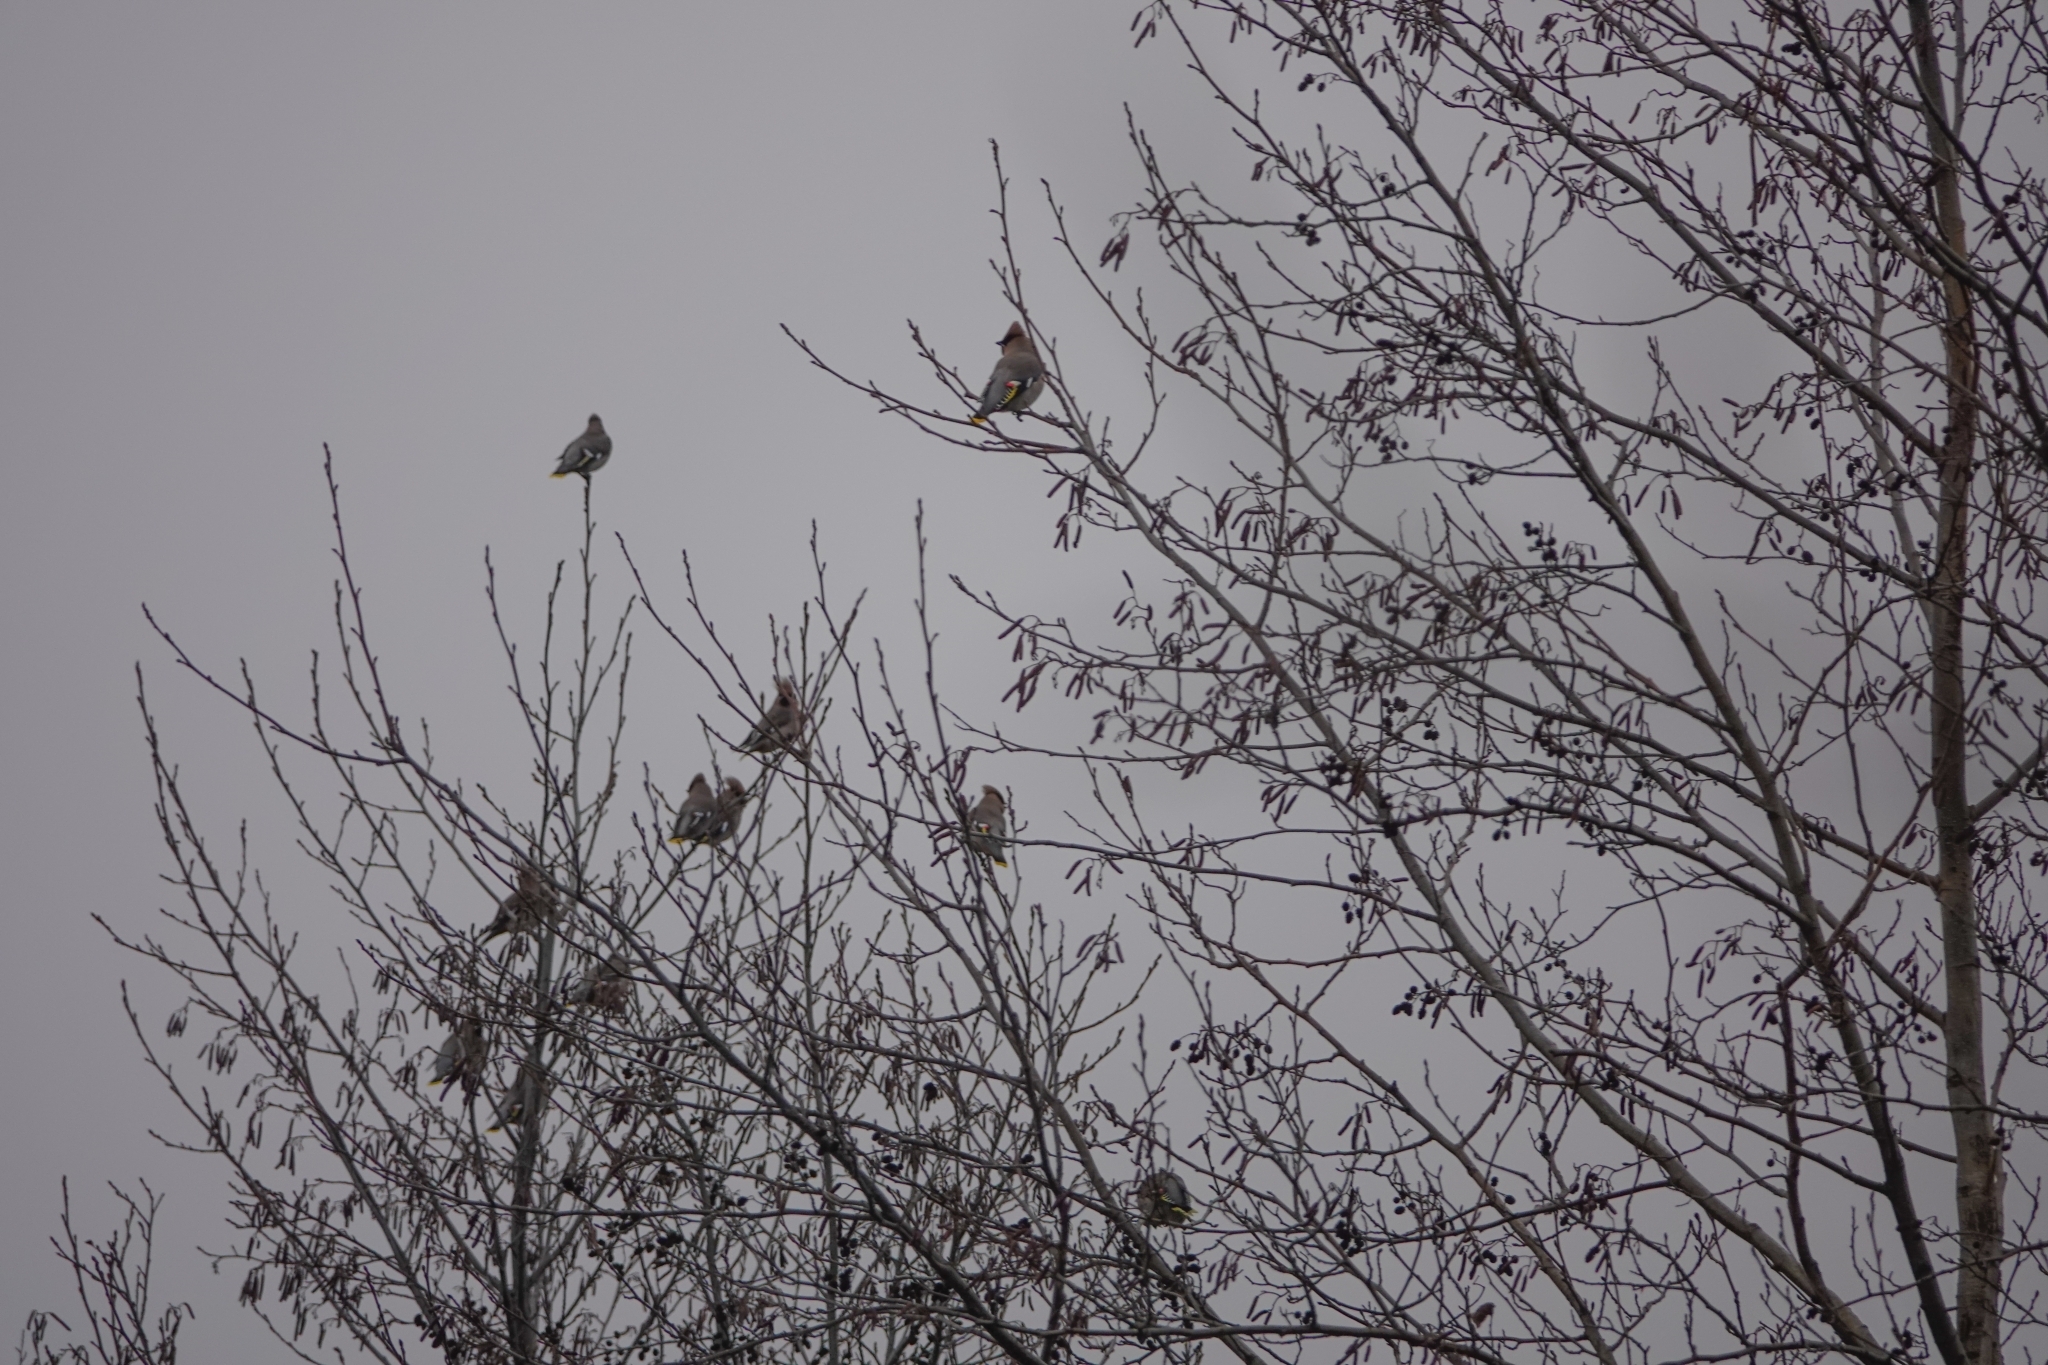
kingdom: Animalia
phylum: Chordata
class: Aves
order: Passeriformes
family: Bombycillidae
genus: Bombycilla
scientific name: Bombycilla garrulus
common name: Bohemian waxwing
